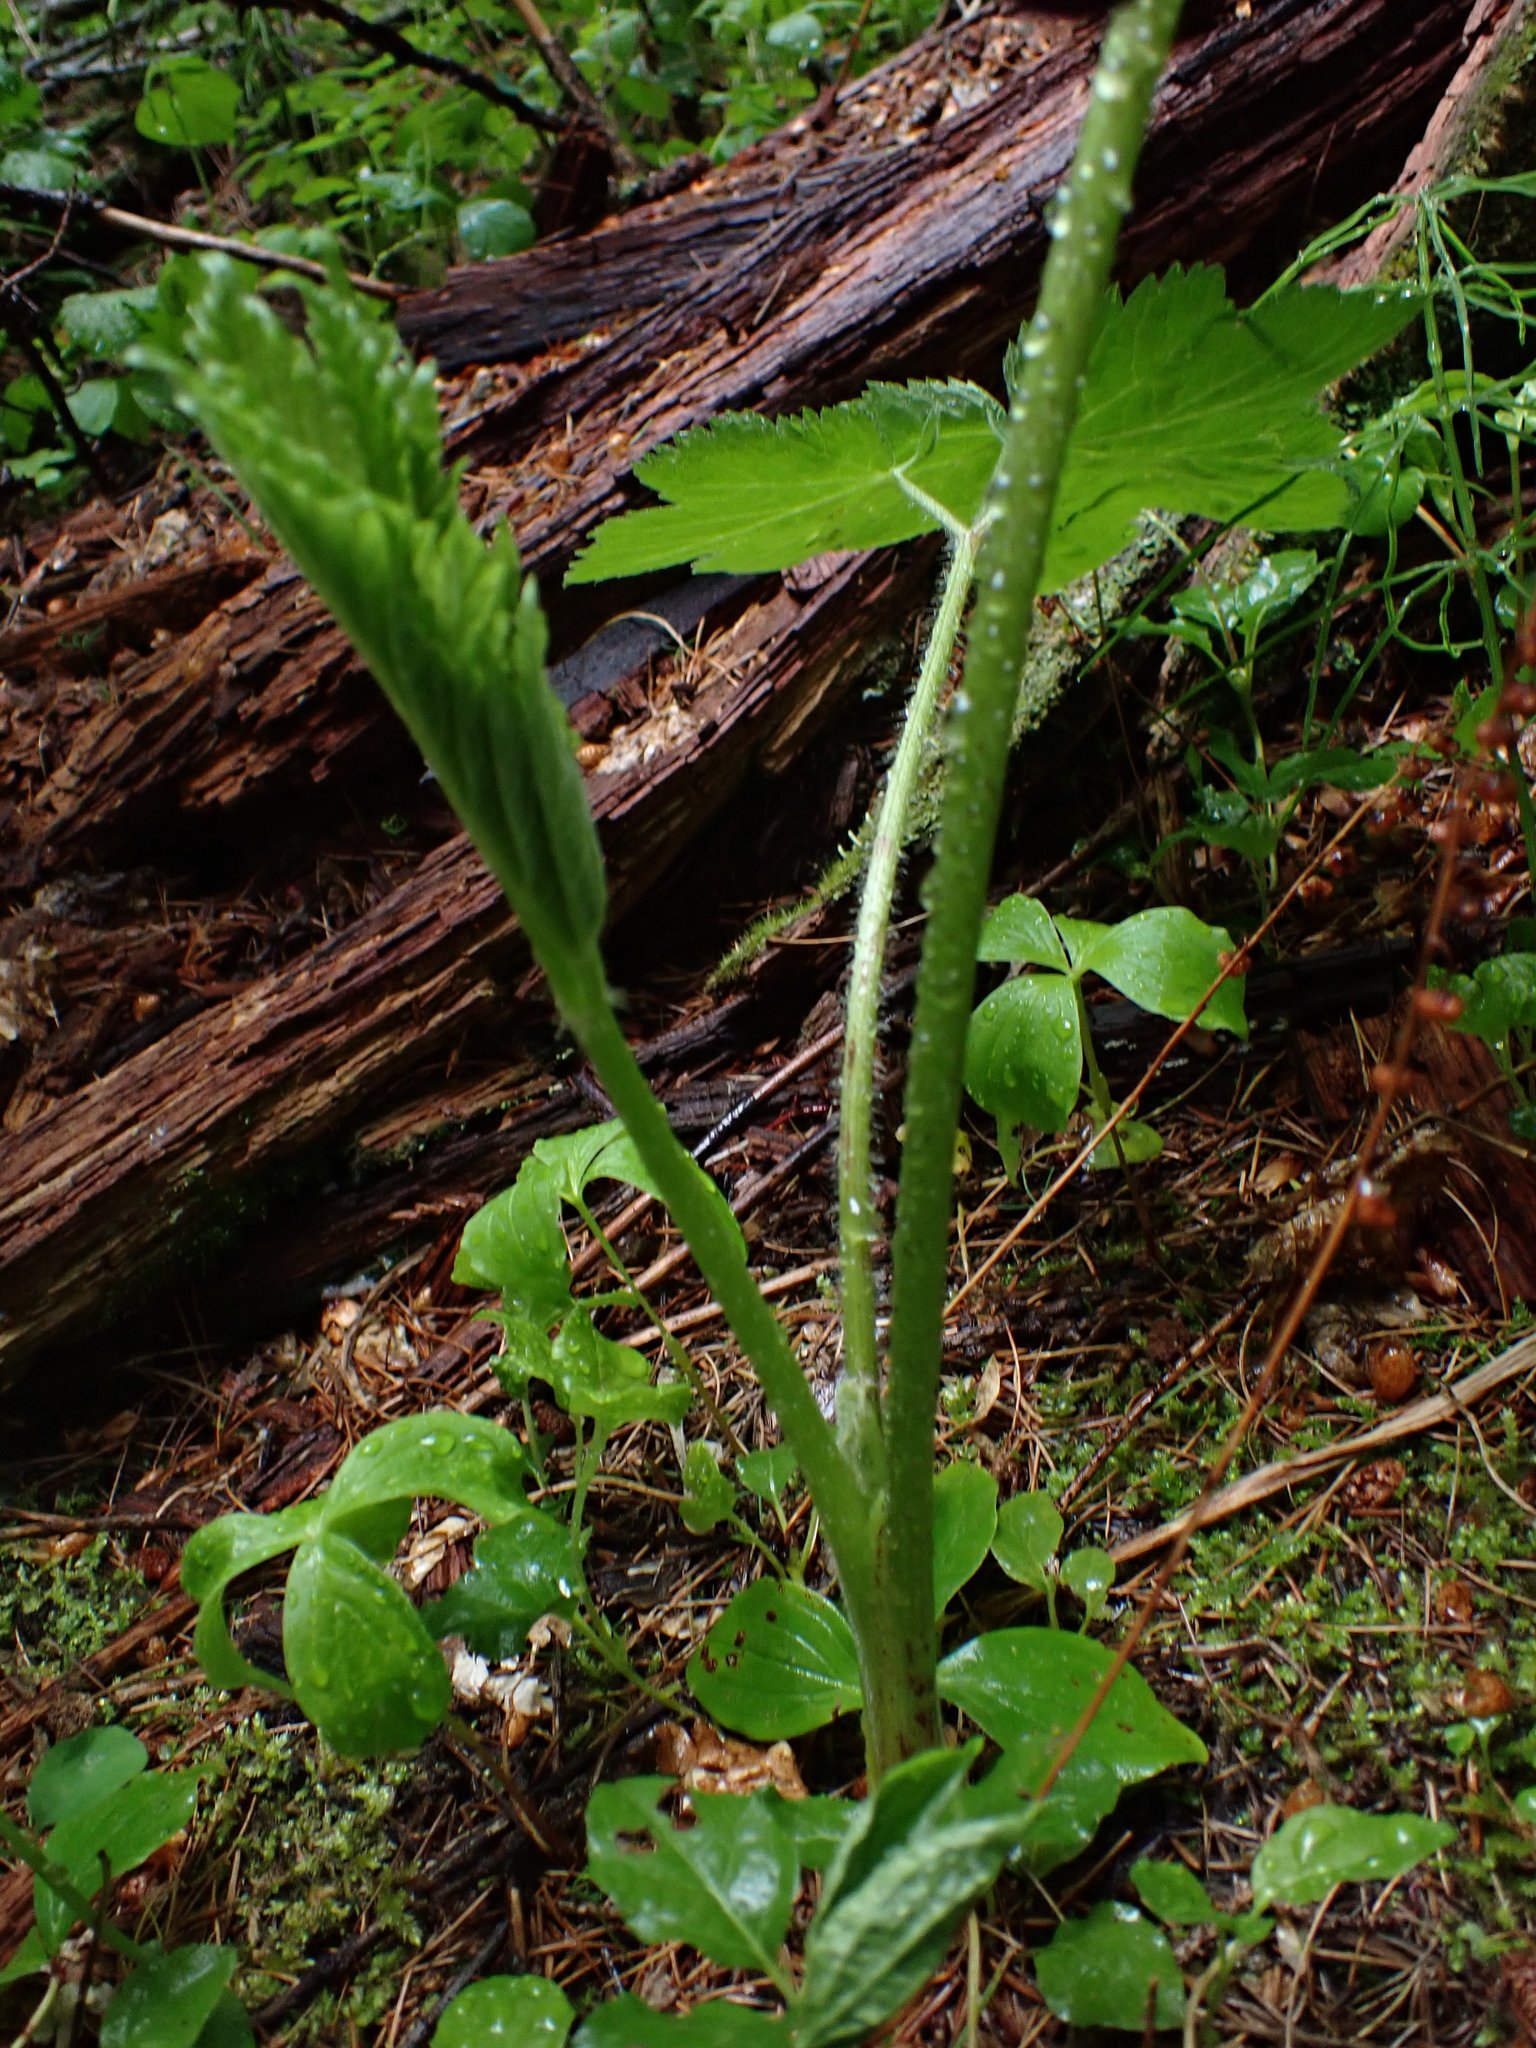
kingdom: Plantae
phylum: Tracheophyta
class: Magnoliopsida
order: Apiales
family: Apiaceae
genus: Heracleum
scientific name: Heracleum maximum
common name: American cow parsnip
